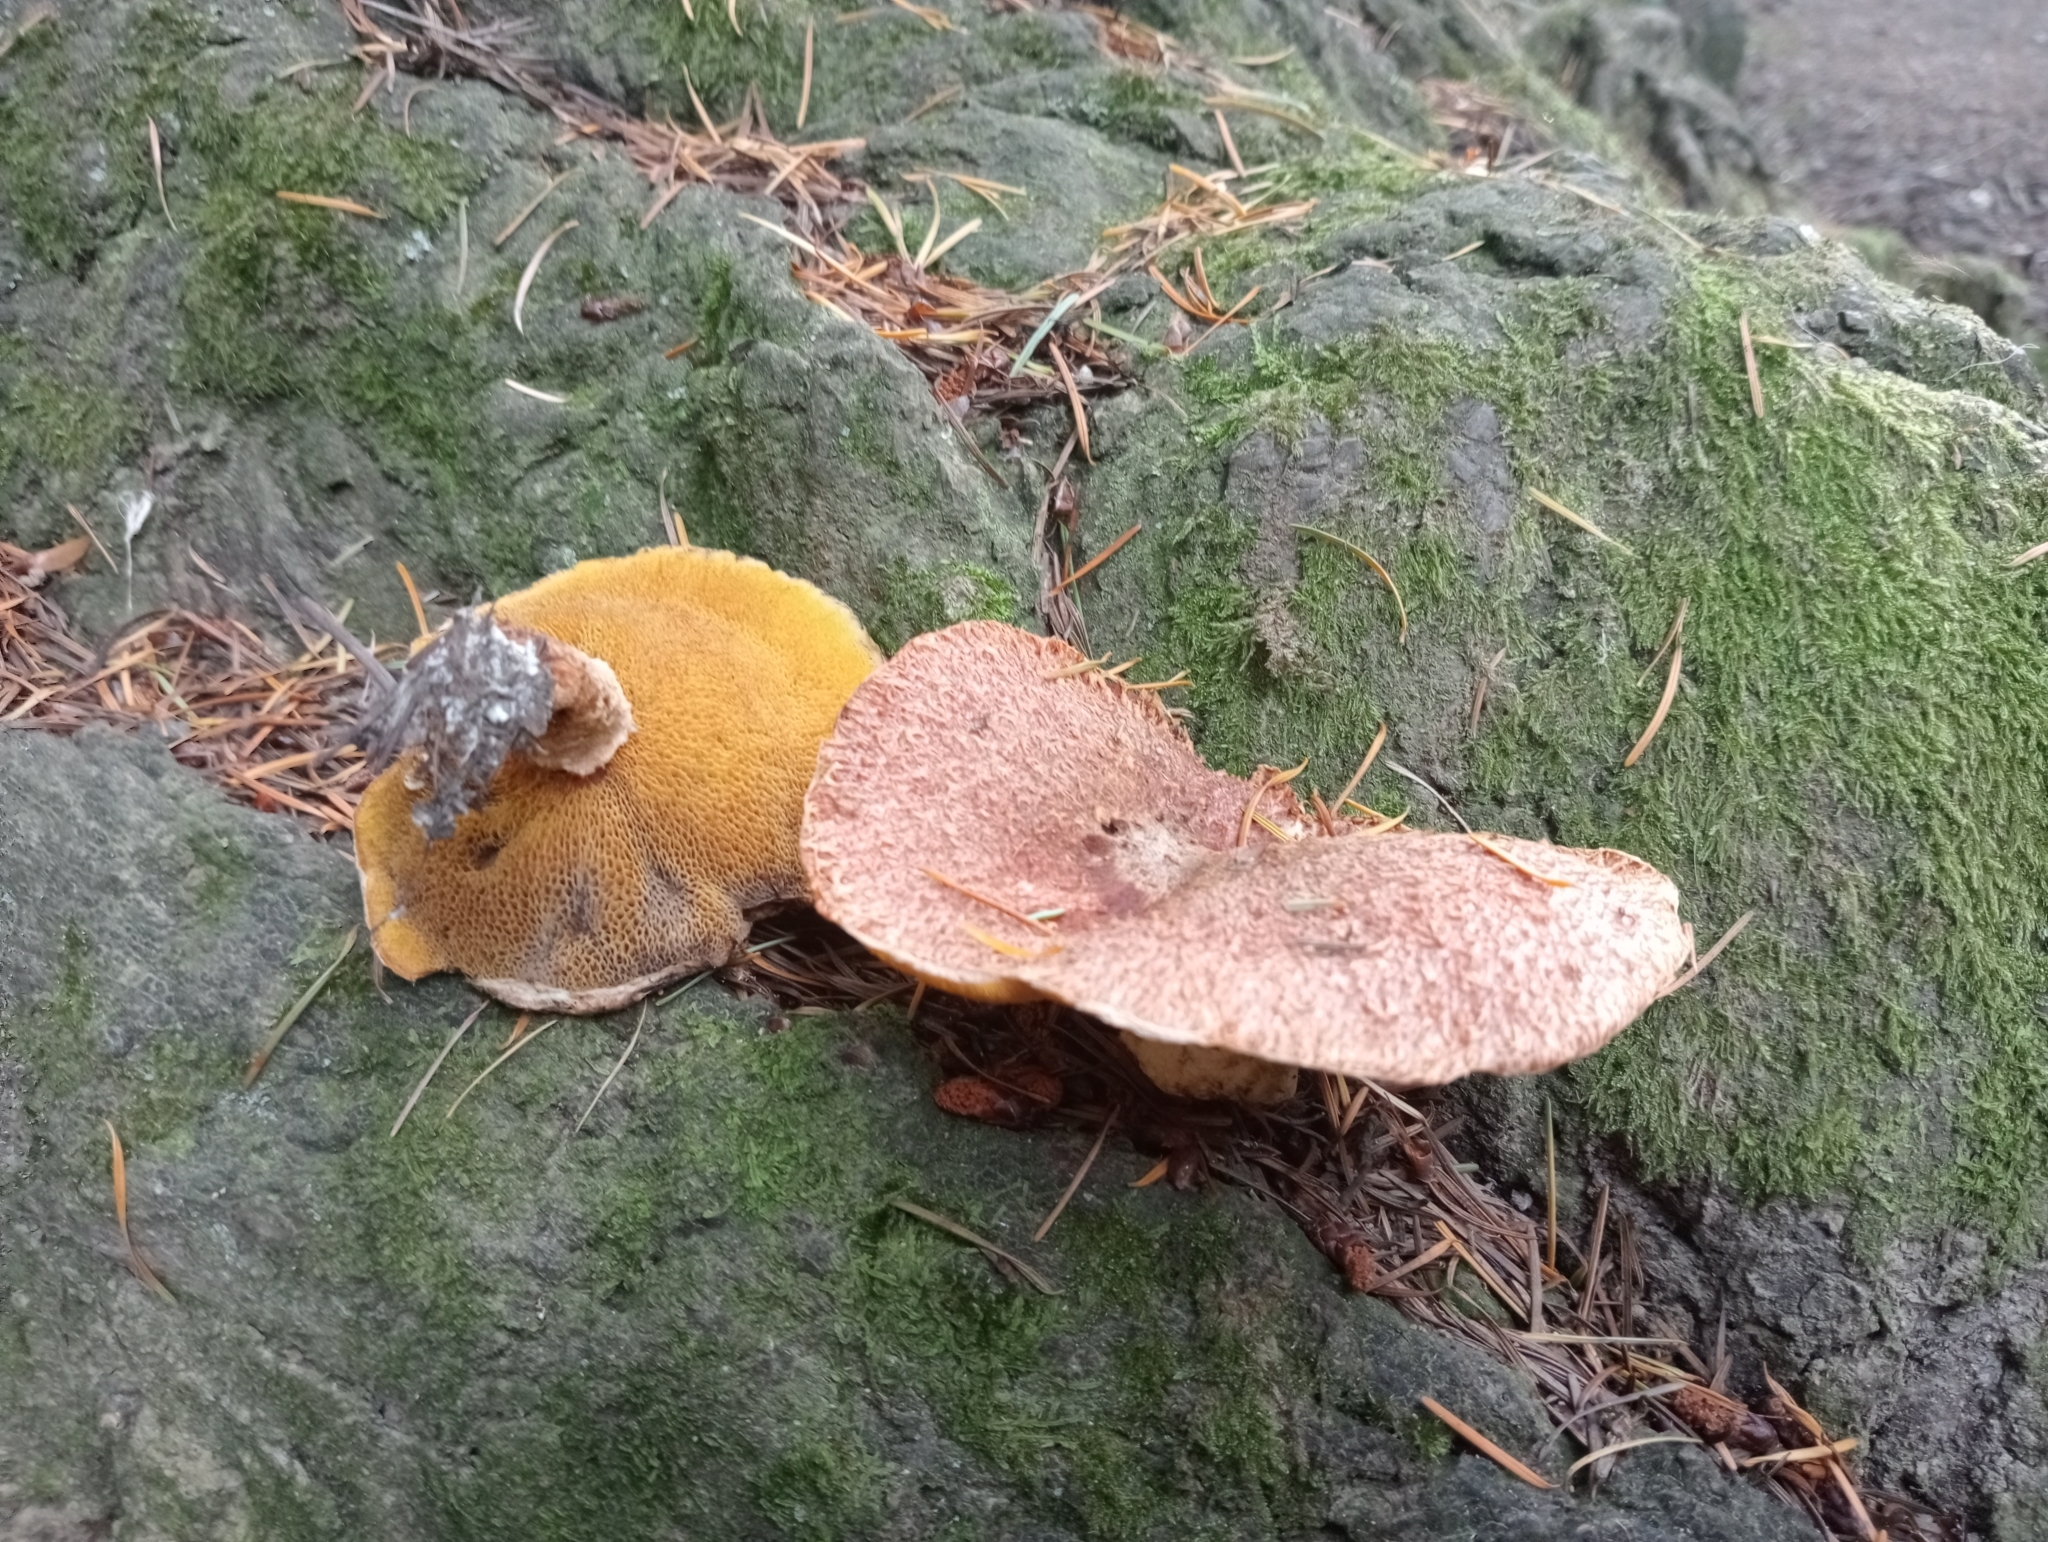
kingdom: Fungi
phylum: Basidiomycota
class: Agaricomycetes
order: Boletales
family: Suillaceae
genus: Suillus
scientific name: Suillus lakei
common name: Western painted suillus
